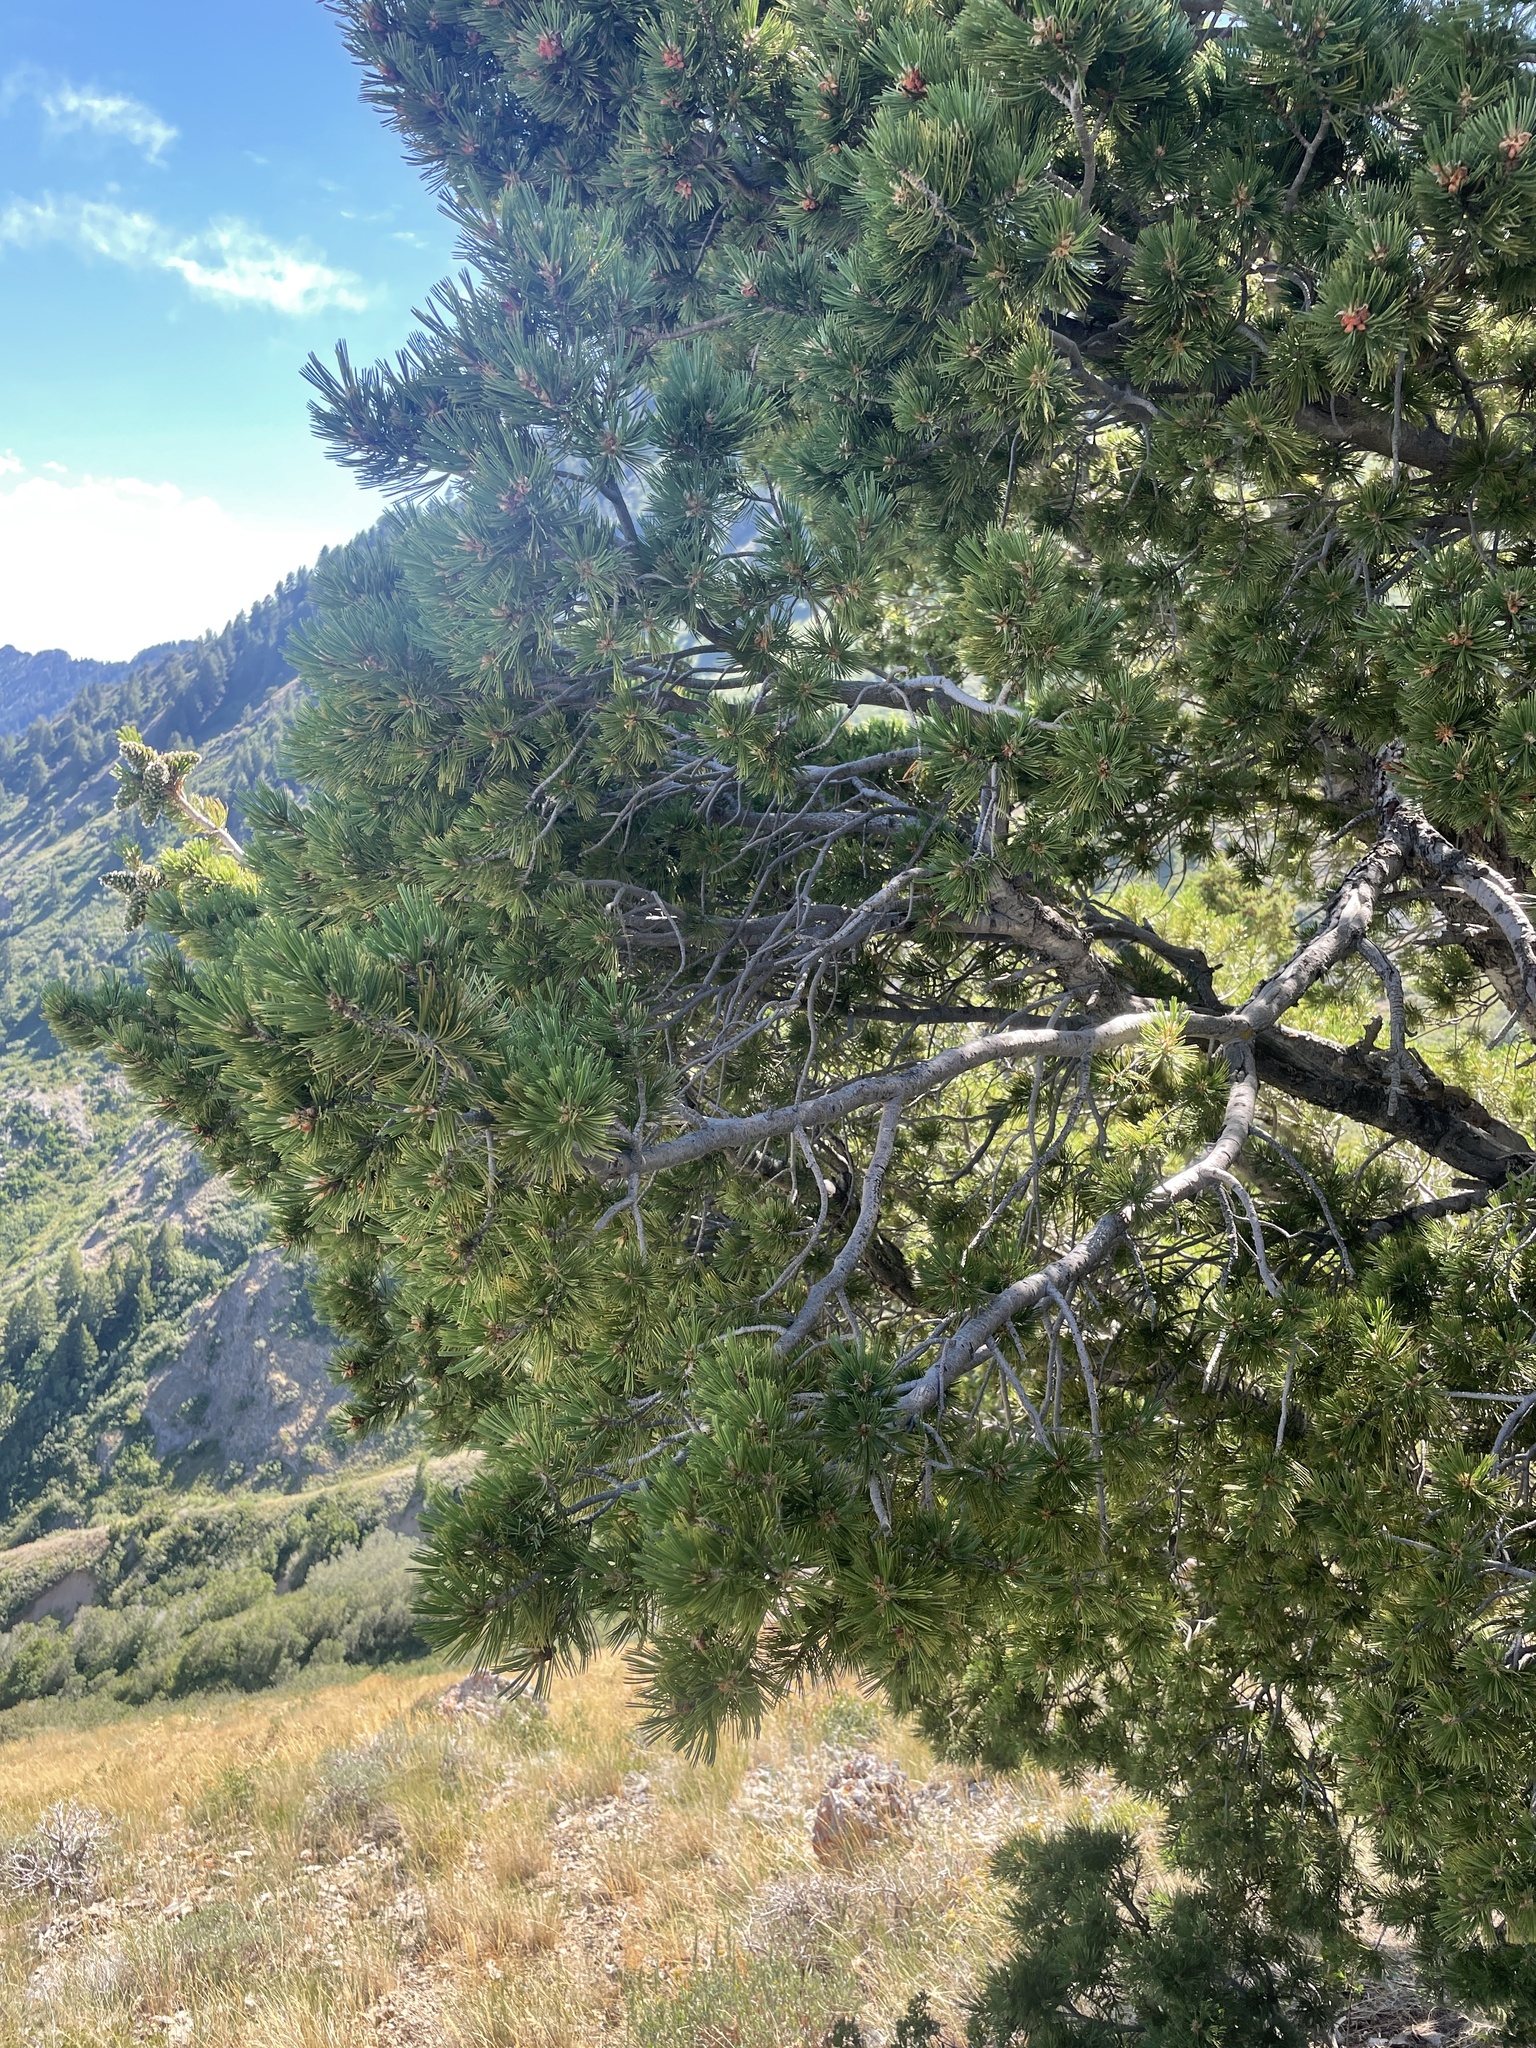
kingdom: Plantae
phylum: Tracheophyta
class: Pinopsida
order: Pinales
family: Pinaceae
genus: Pinus
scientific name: Pinus flexilis
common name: Limber pine
